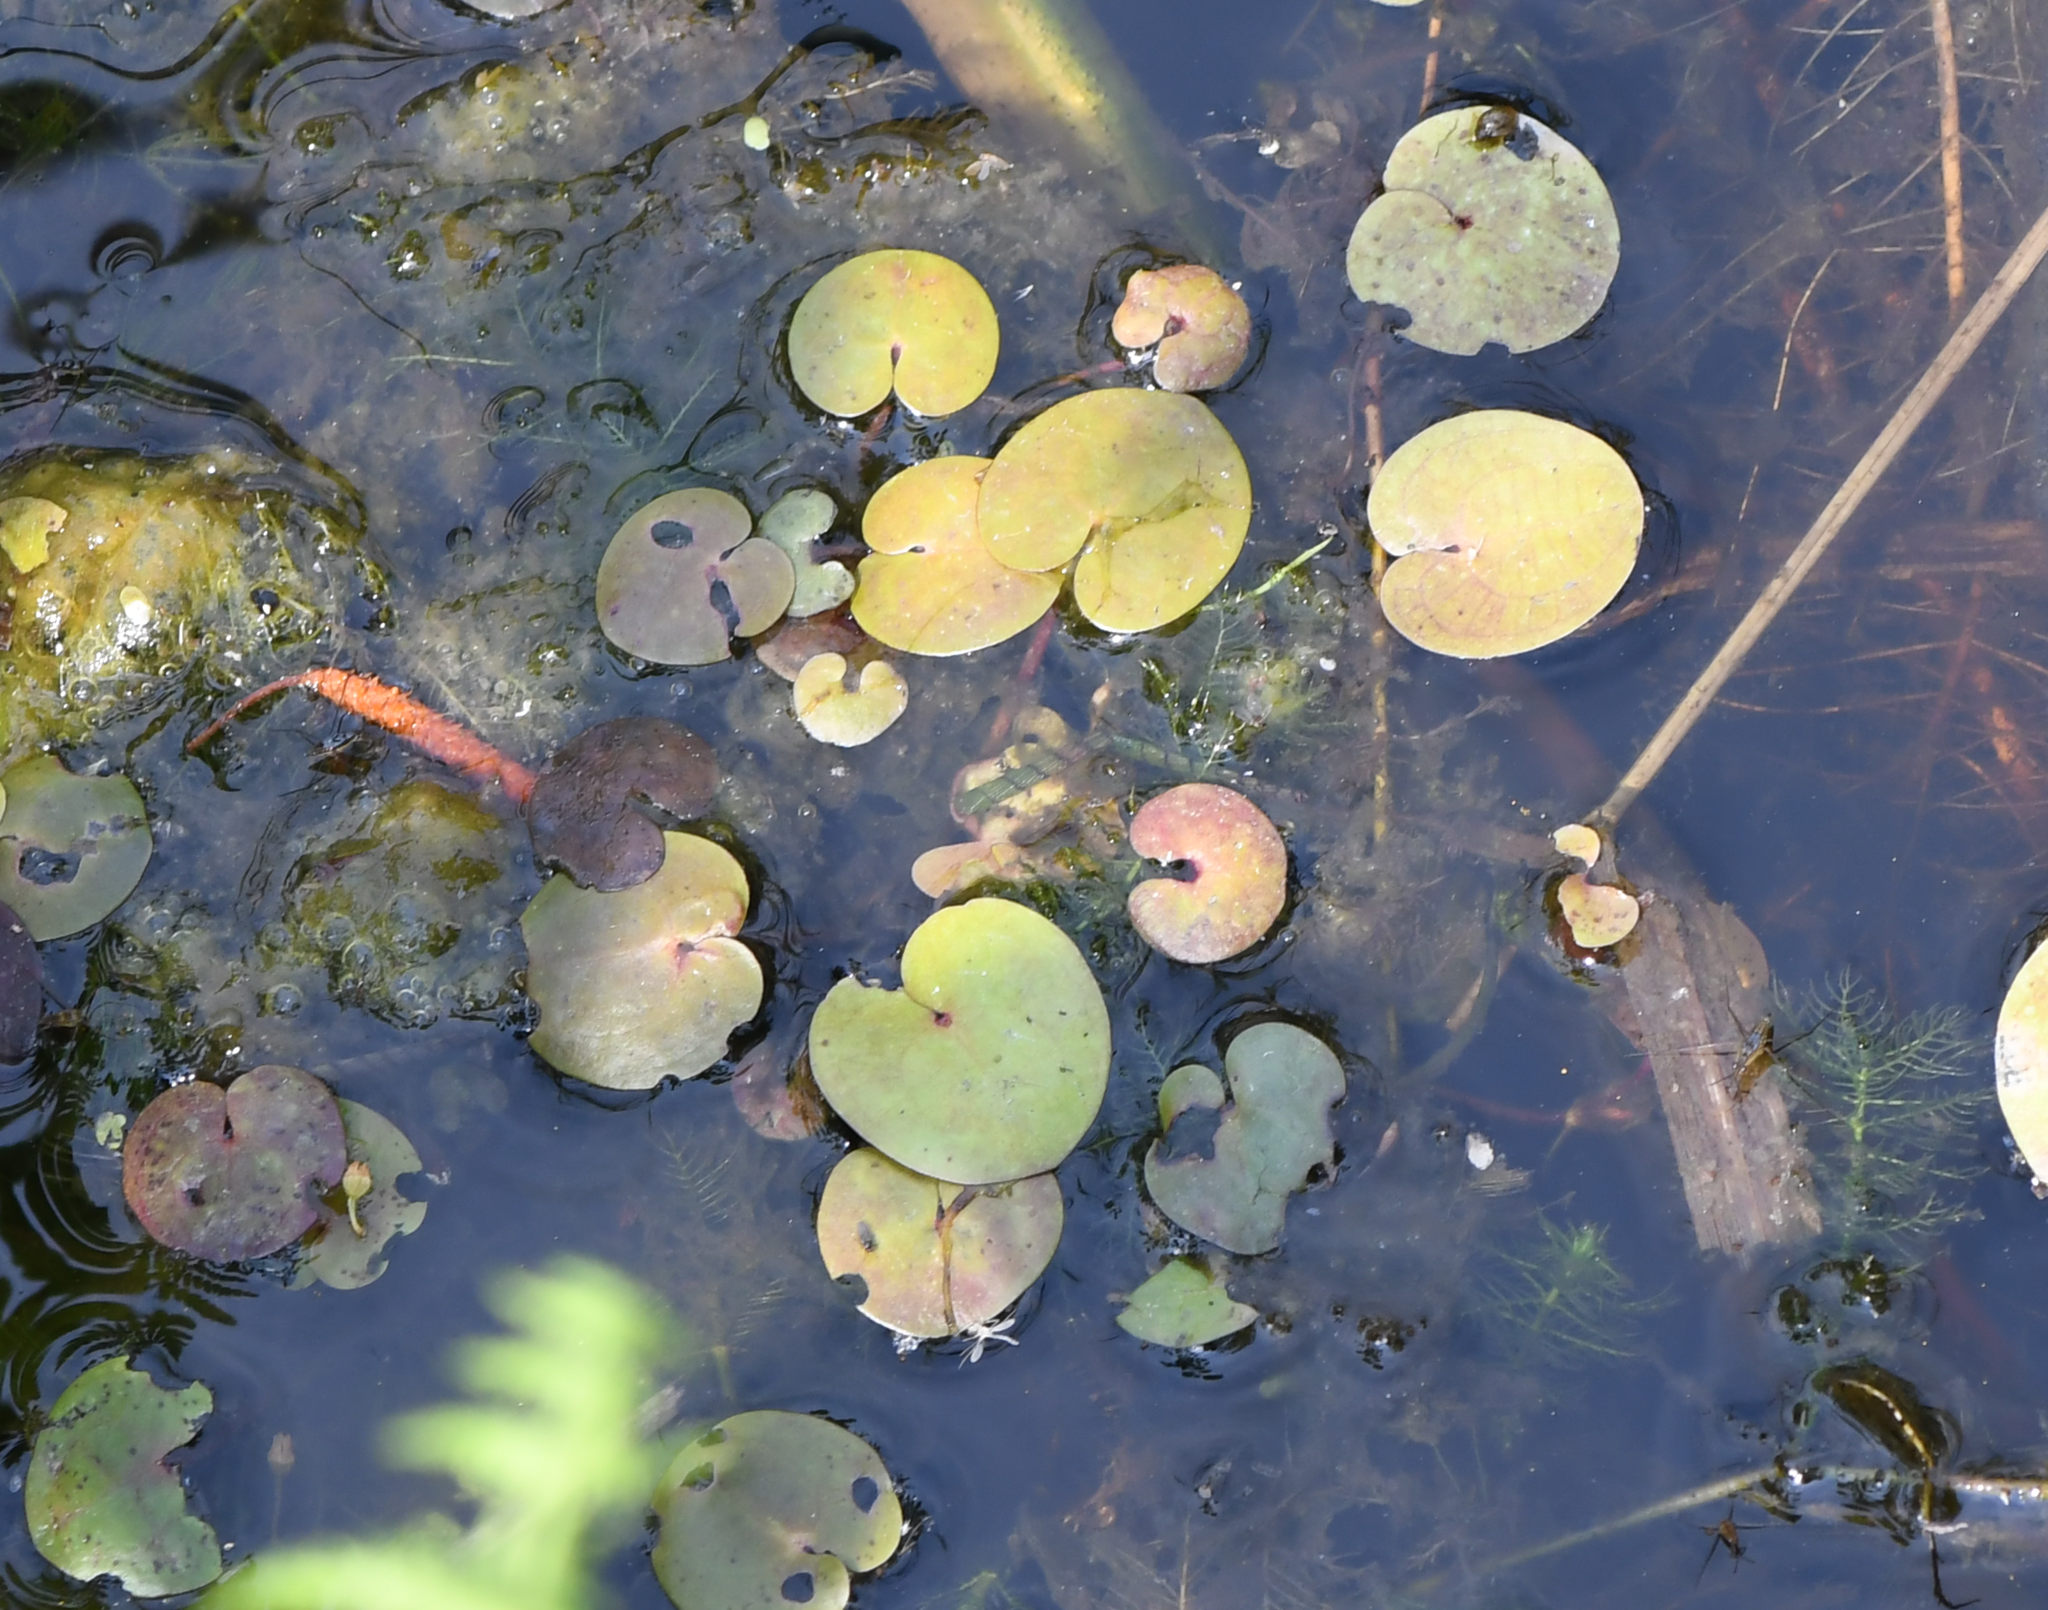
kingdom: Plantae
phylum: Tracheophyta
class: Liliopsida
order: Alismatales
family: Hydrocharitaceae
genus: Hydrocharis
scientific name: Hydrocharis morsus-ranae
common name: Frogbit
